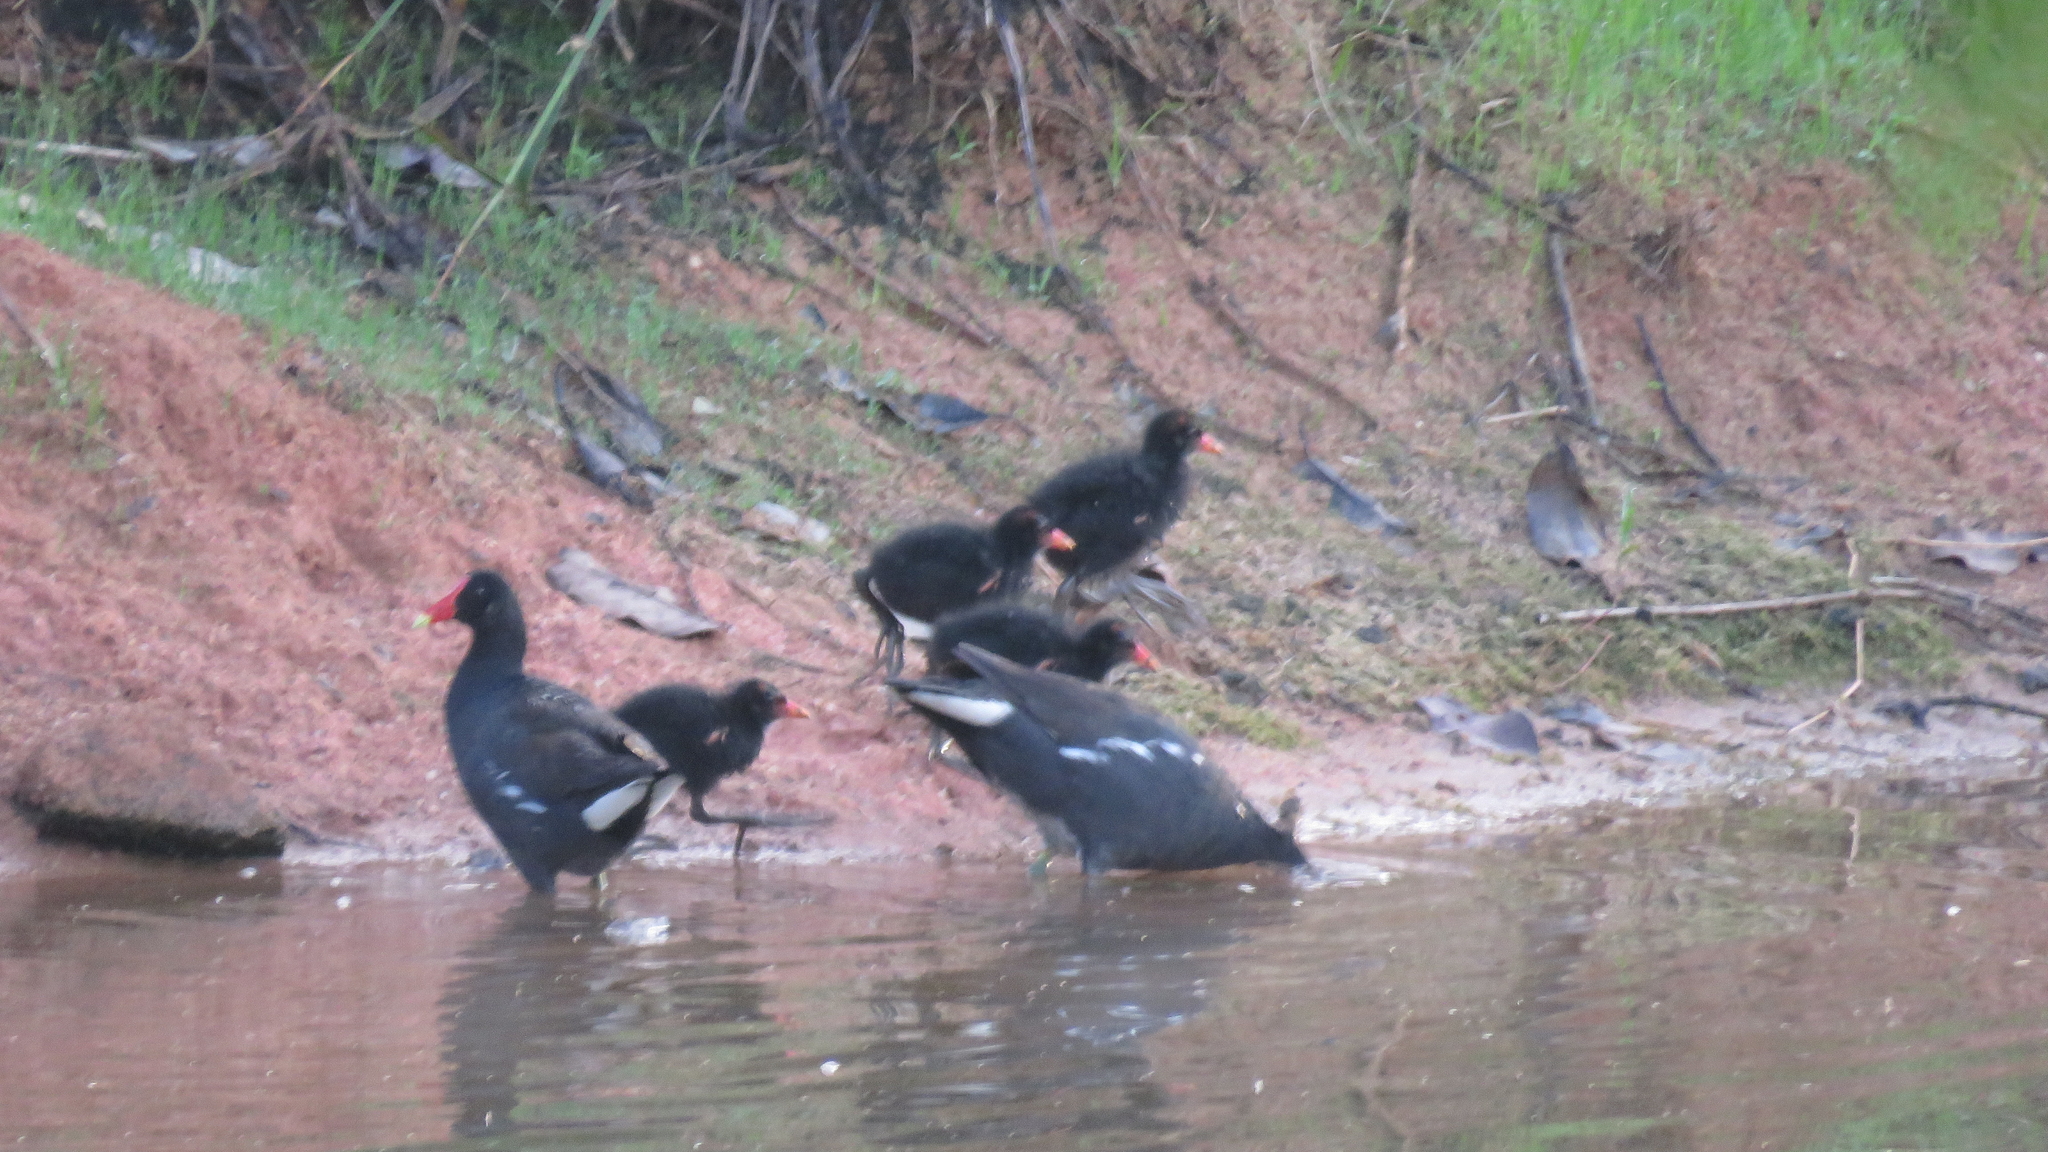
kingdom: Animalia
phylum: Chordata
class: Aves
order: Gruiformes
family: Rallidae
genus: Gallinula
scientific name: Gallinula chloropus
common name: Common moorhen
